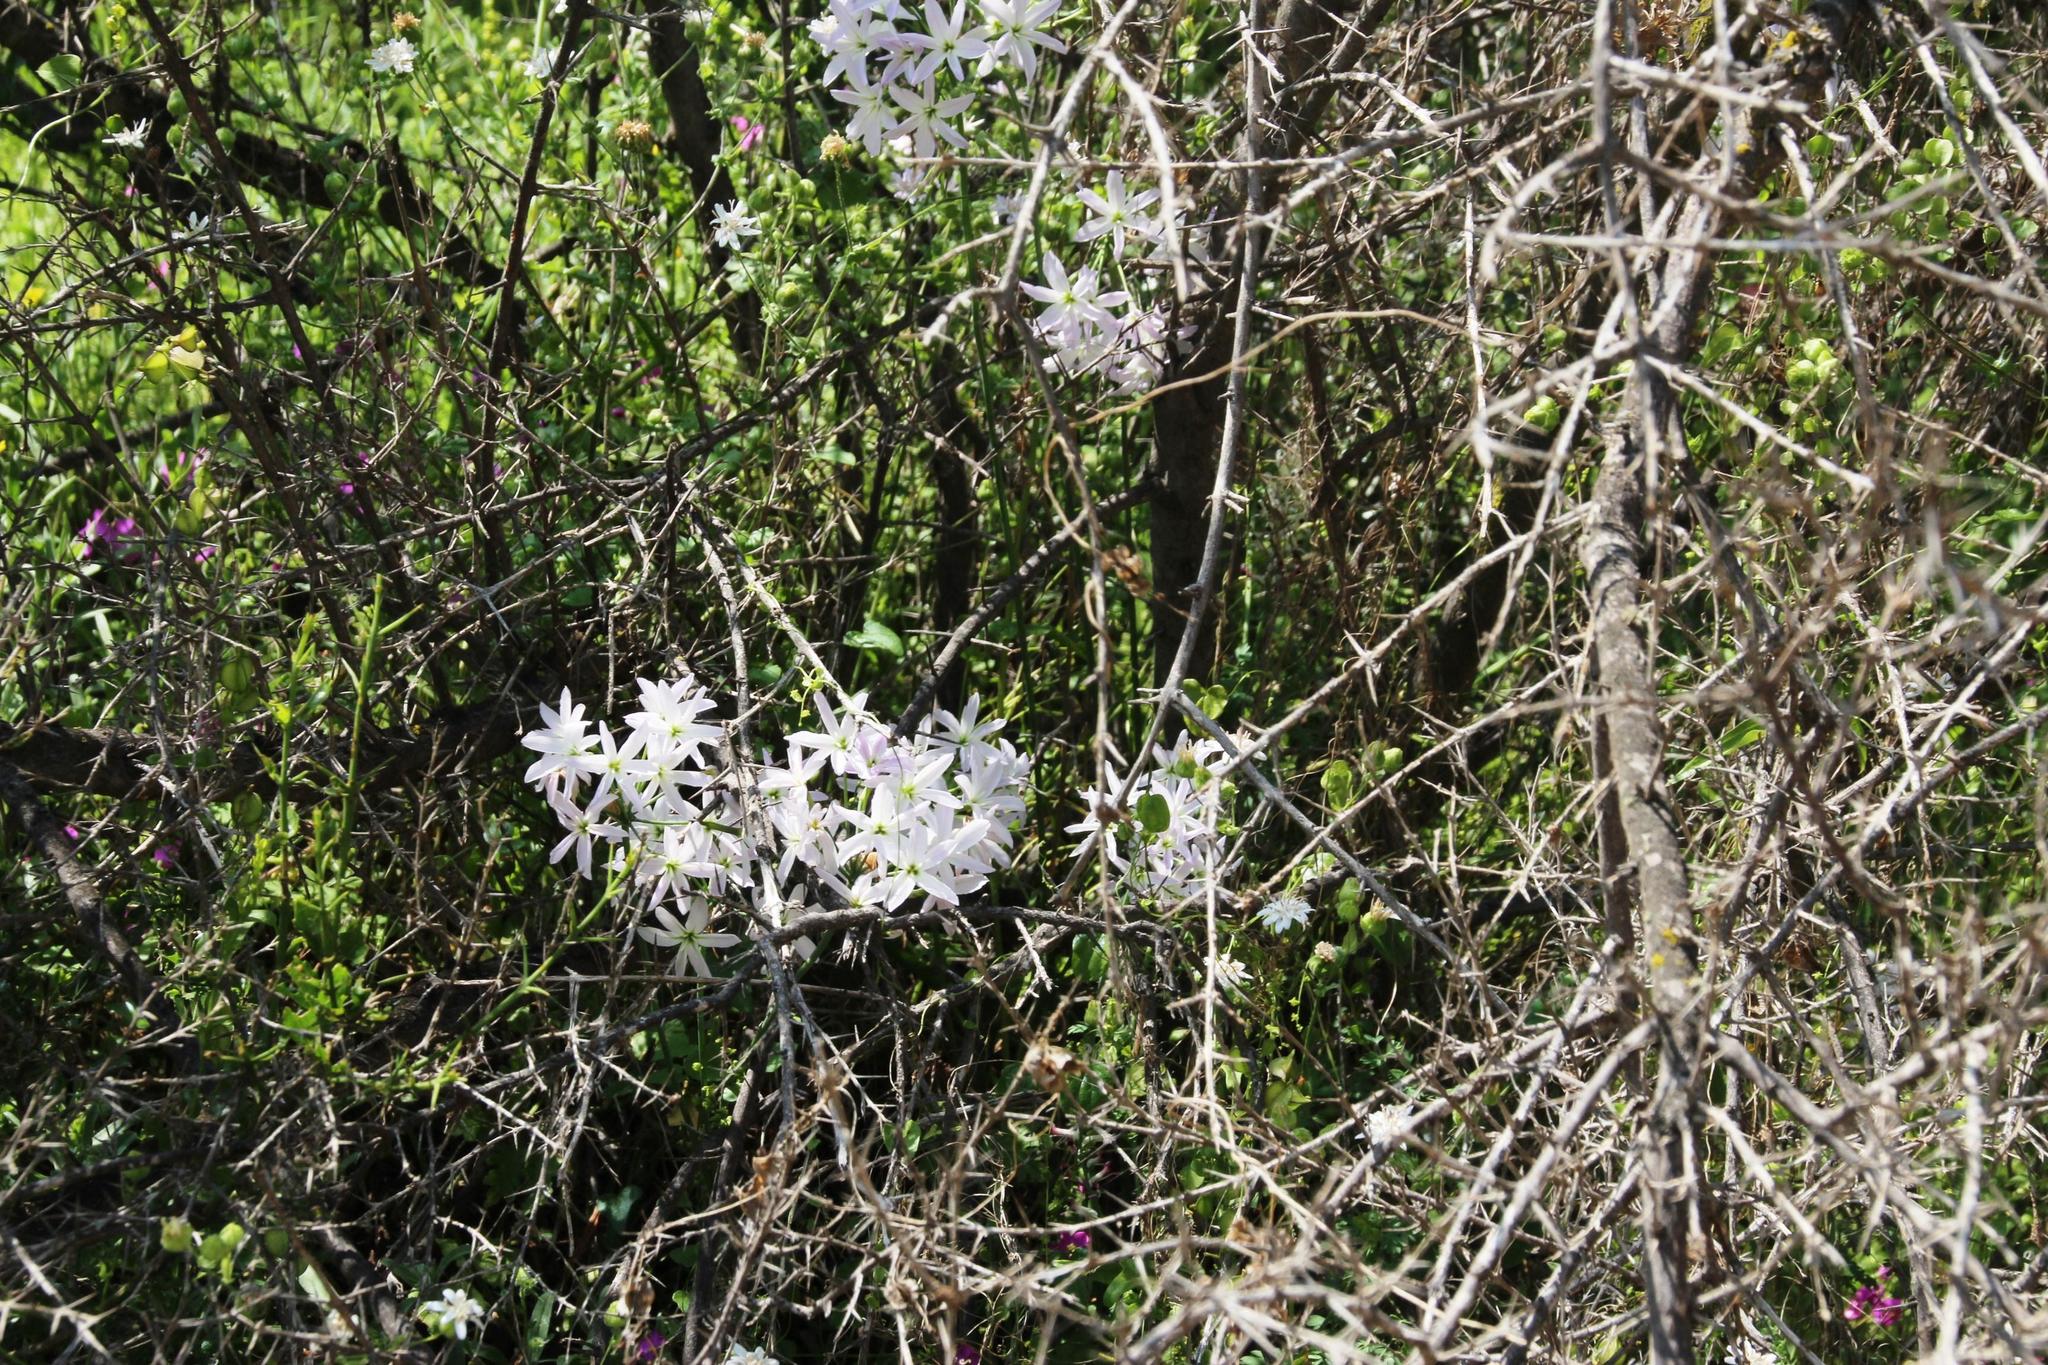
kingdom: Plantae
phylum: Tracheophyta
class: Liliopsida
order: Asparagales
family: Amaryllidaceae
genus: Leucocoryne
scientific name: Leucocoryne ixioides
